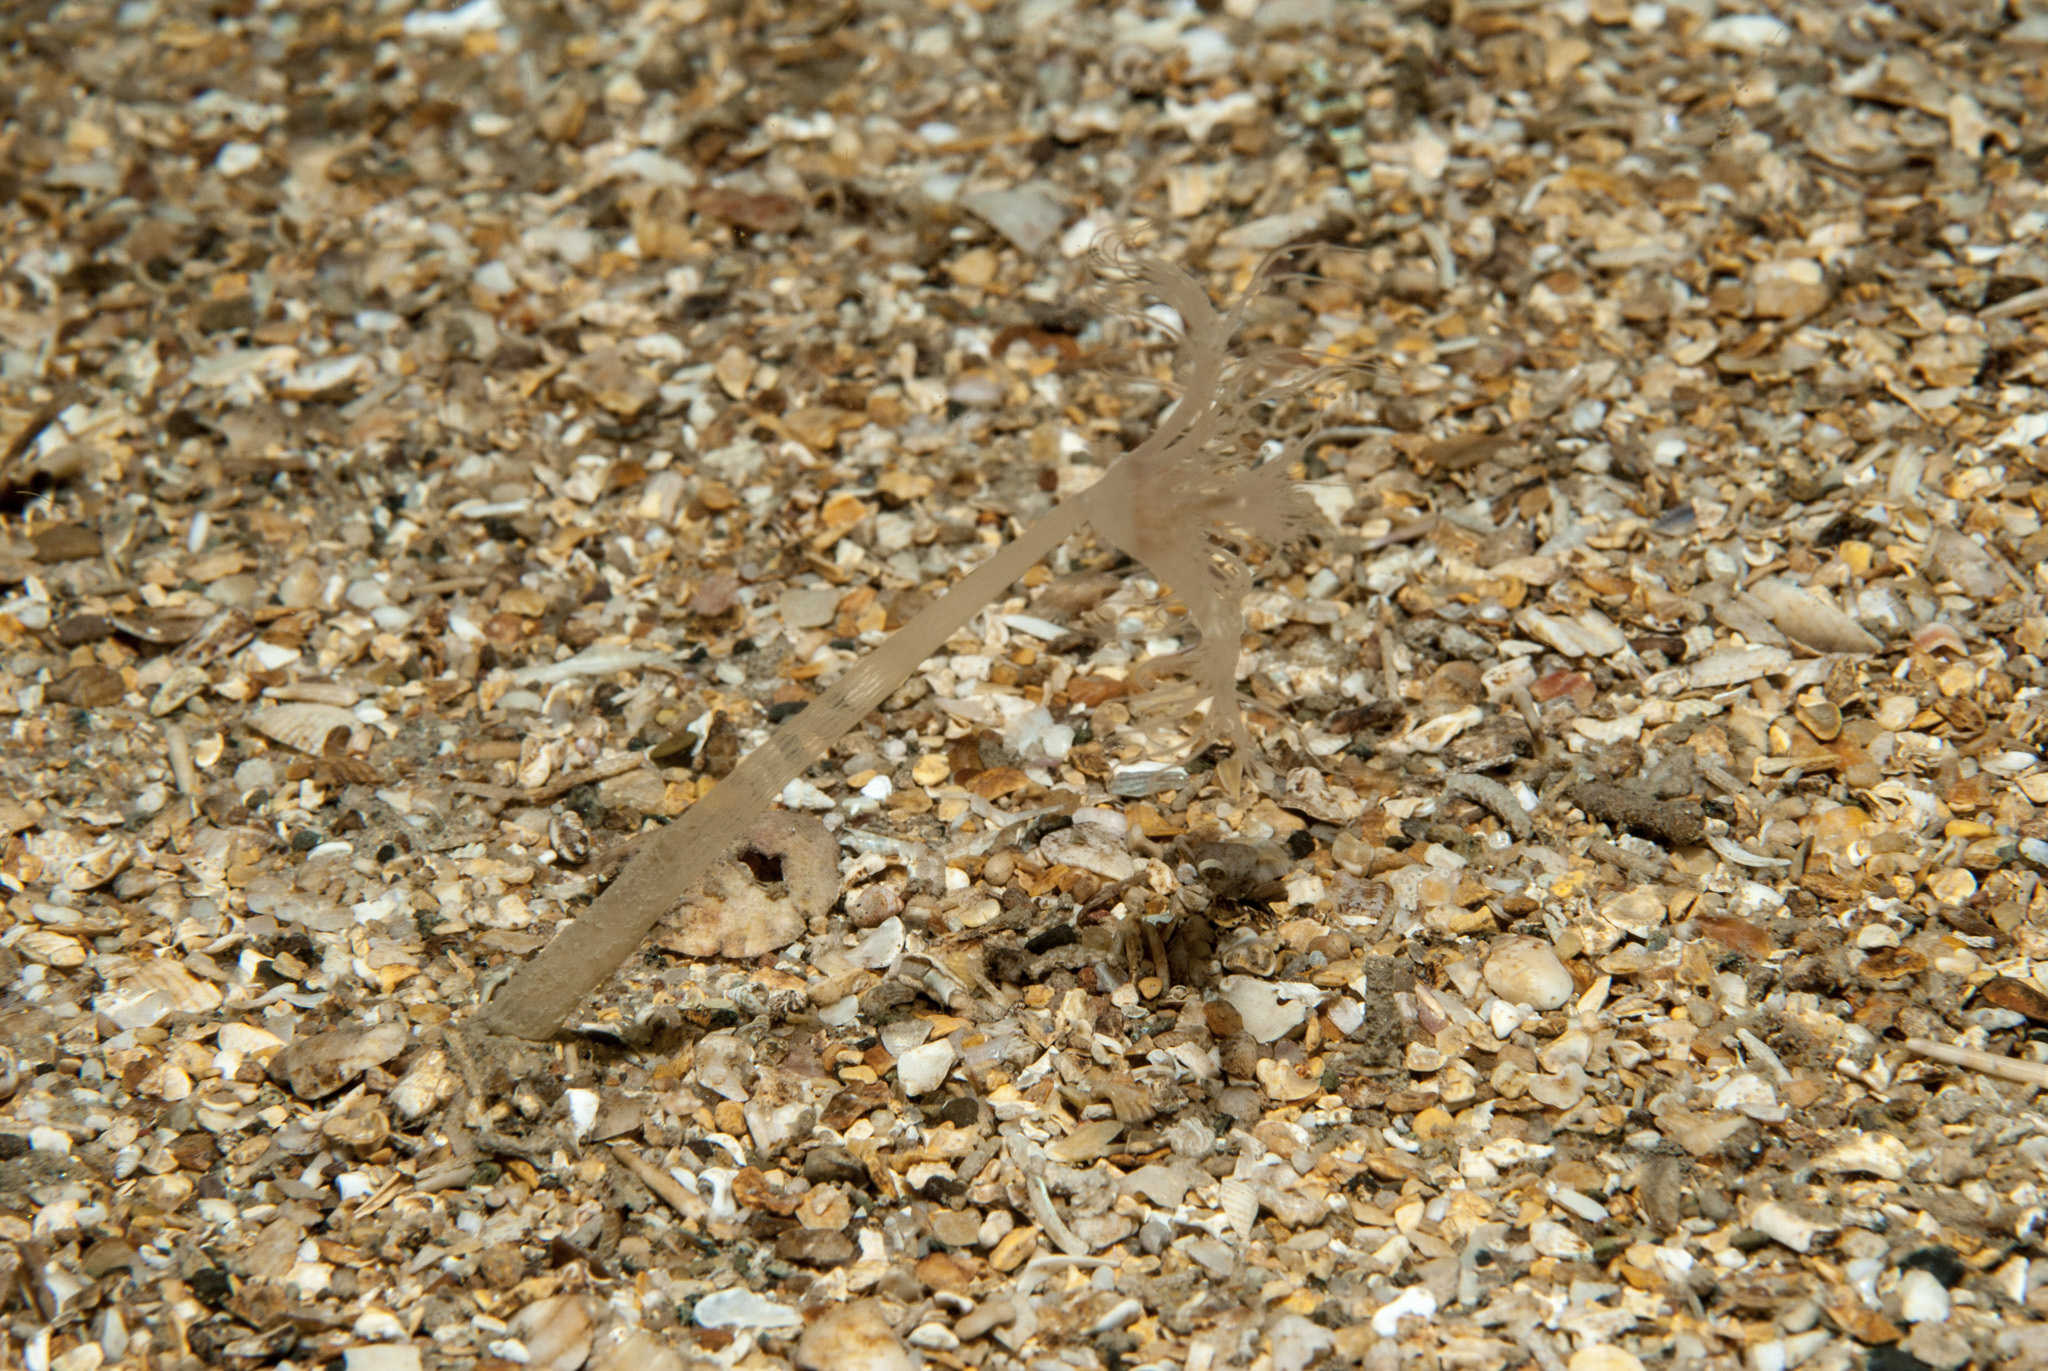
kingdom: Animalia
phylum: Cnidaria
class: Hydrozoa
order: Anthoathecata
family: Corymorphidae
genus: Corymorpha
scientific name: Corymorpha nutans
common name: Nodding hydroid
